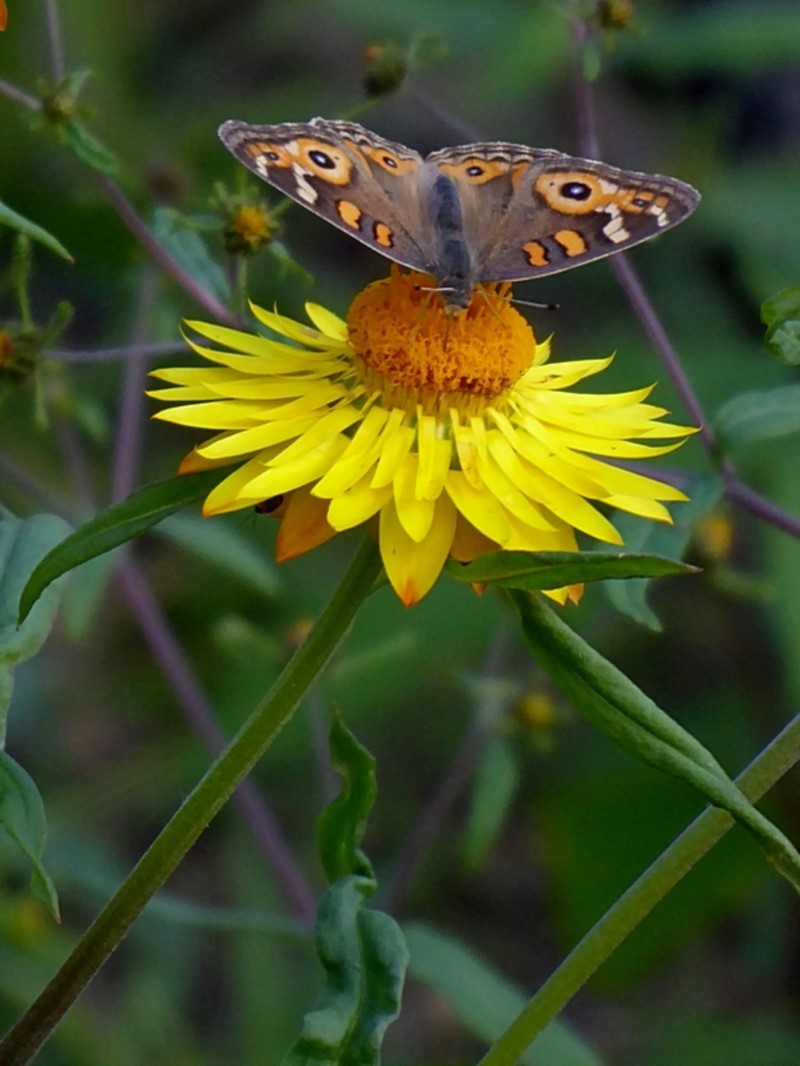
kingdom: Plantae
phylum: Tracheophyta
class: Magnoliopsida
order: Asterales
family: Asteraceae
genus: Xerochrysum
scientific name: Xerochrysum bracteatum
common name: Bracted strawflower
